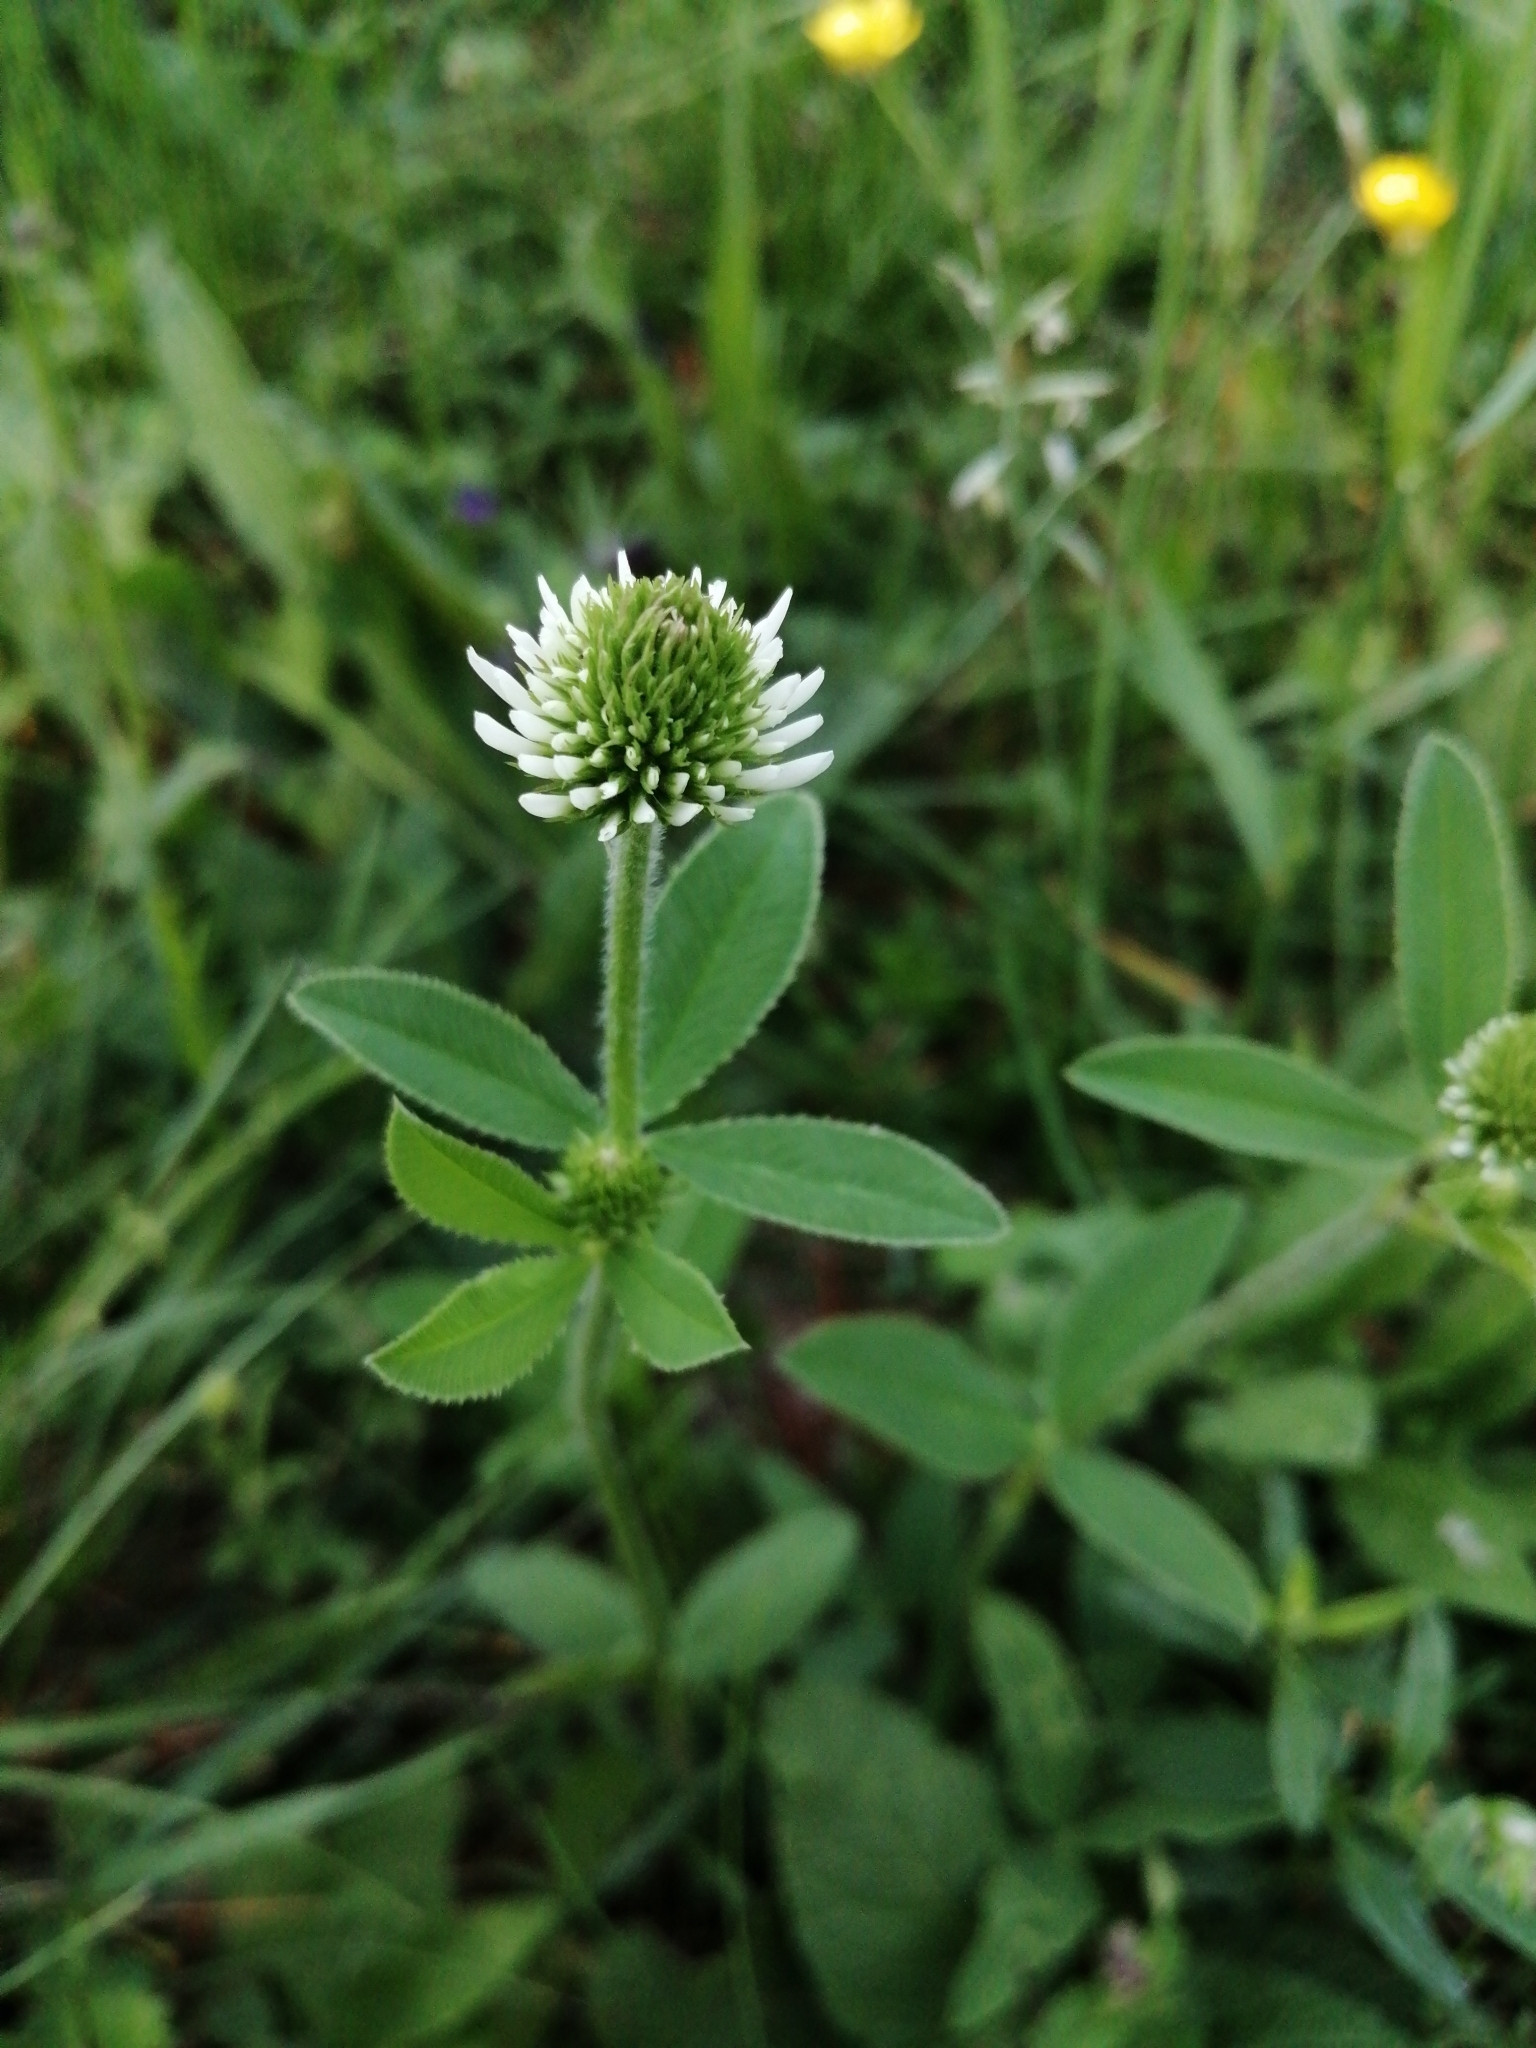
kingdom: Plantae
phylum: Tracheophyta
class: Magnoliopsida
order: Fabales
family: Fabaceae
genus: Trifolium
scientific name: Trifolium montanum
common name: Mountain clover
